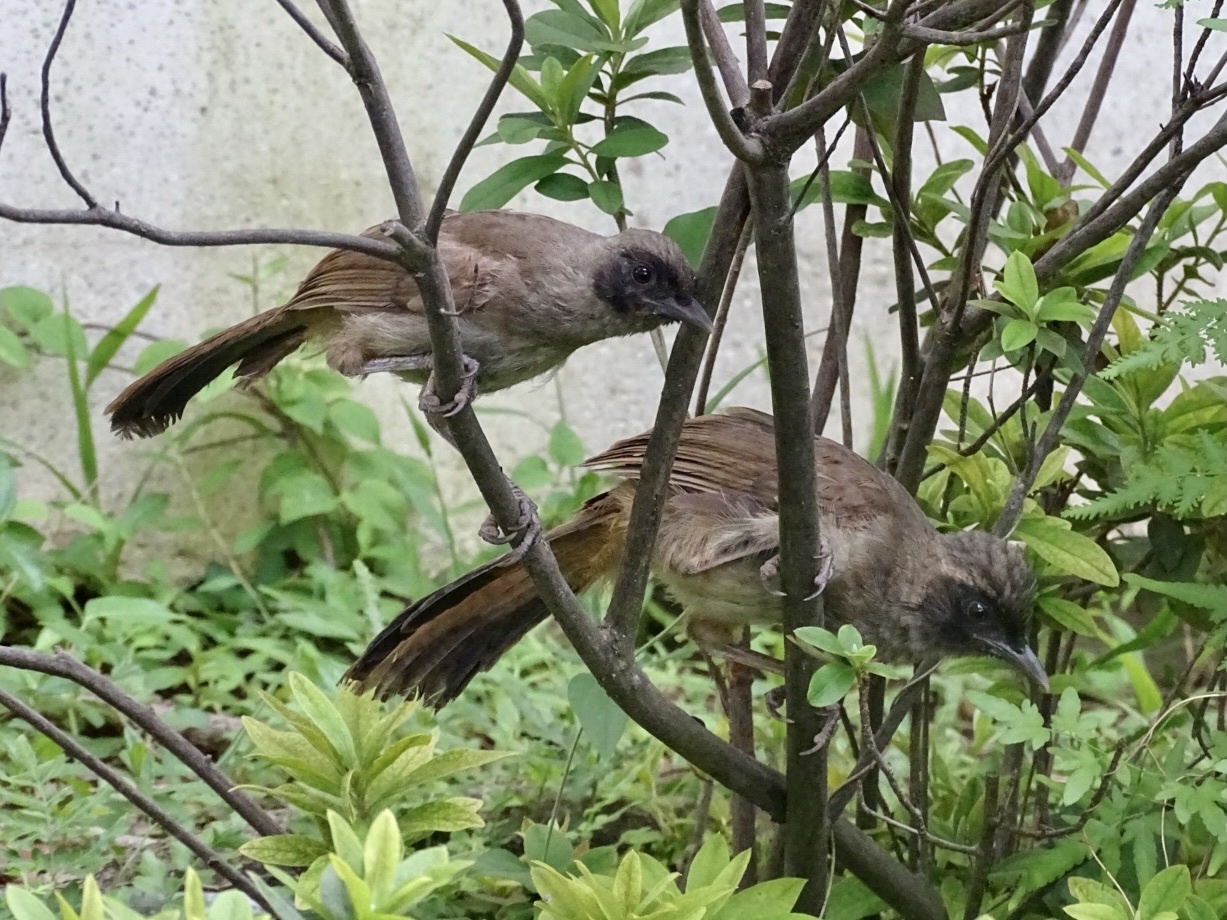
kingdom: Animalia
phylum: Chordata
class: Aves
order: Passeriformes
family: Leiothrichidae
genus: Garrulax
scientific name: Garrulax perspicillatus
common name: Masked laughingthrush
